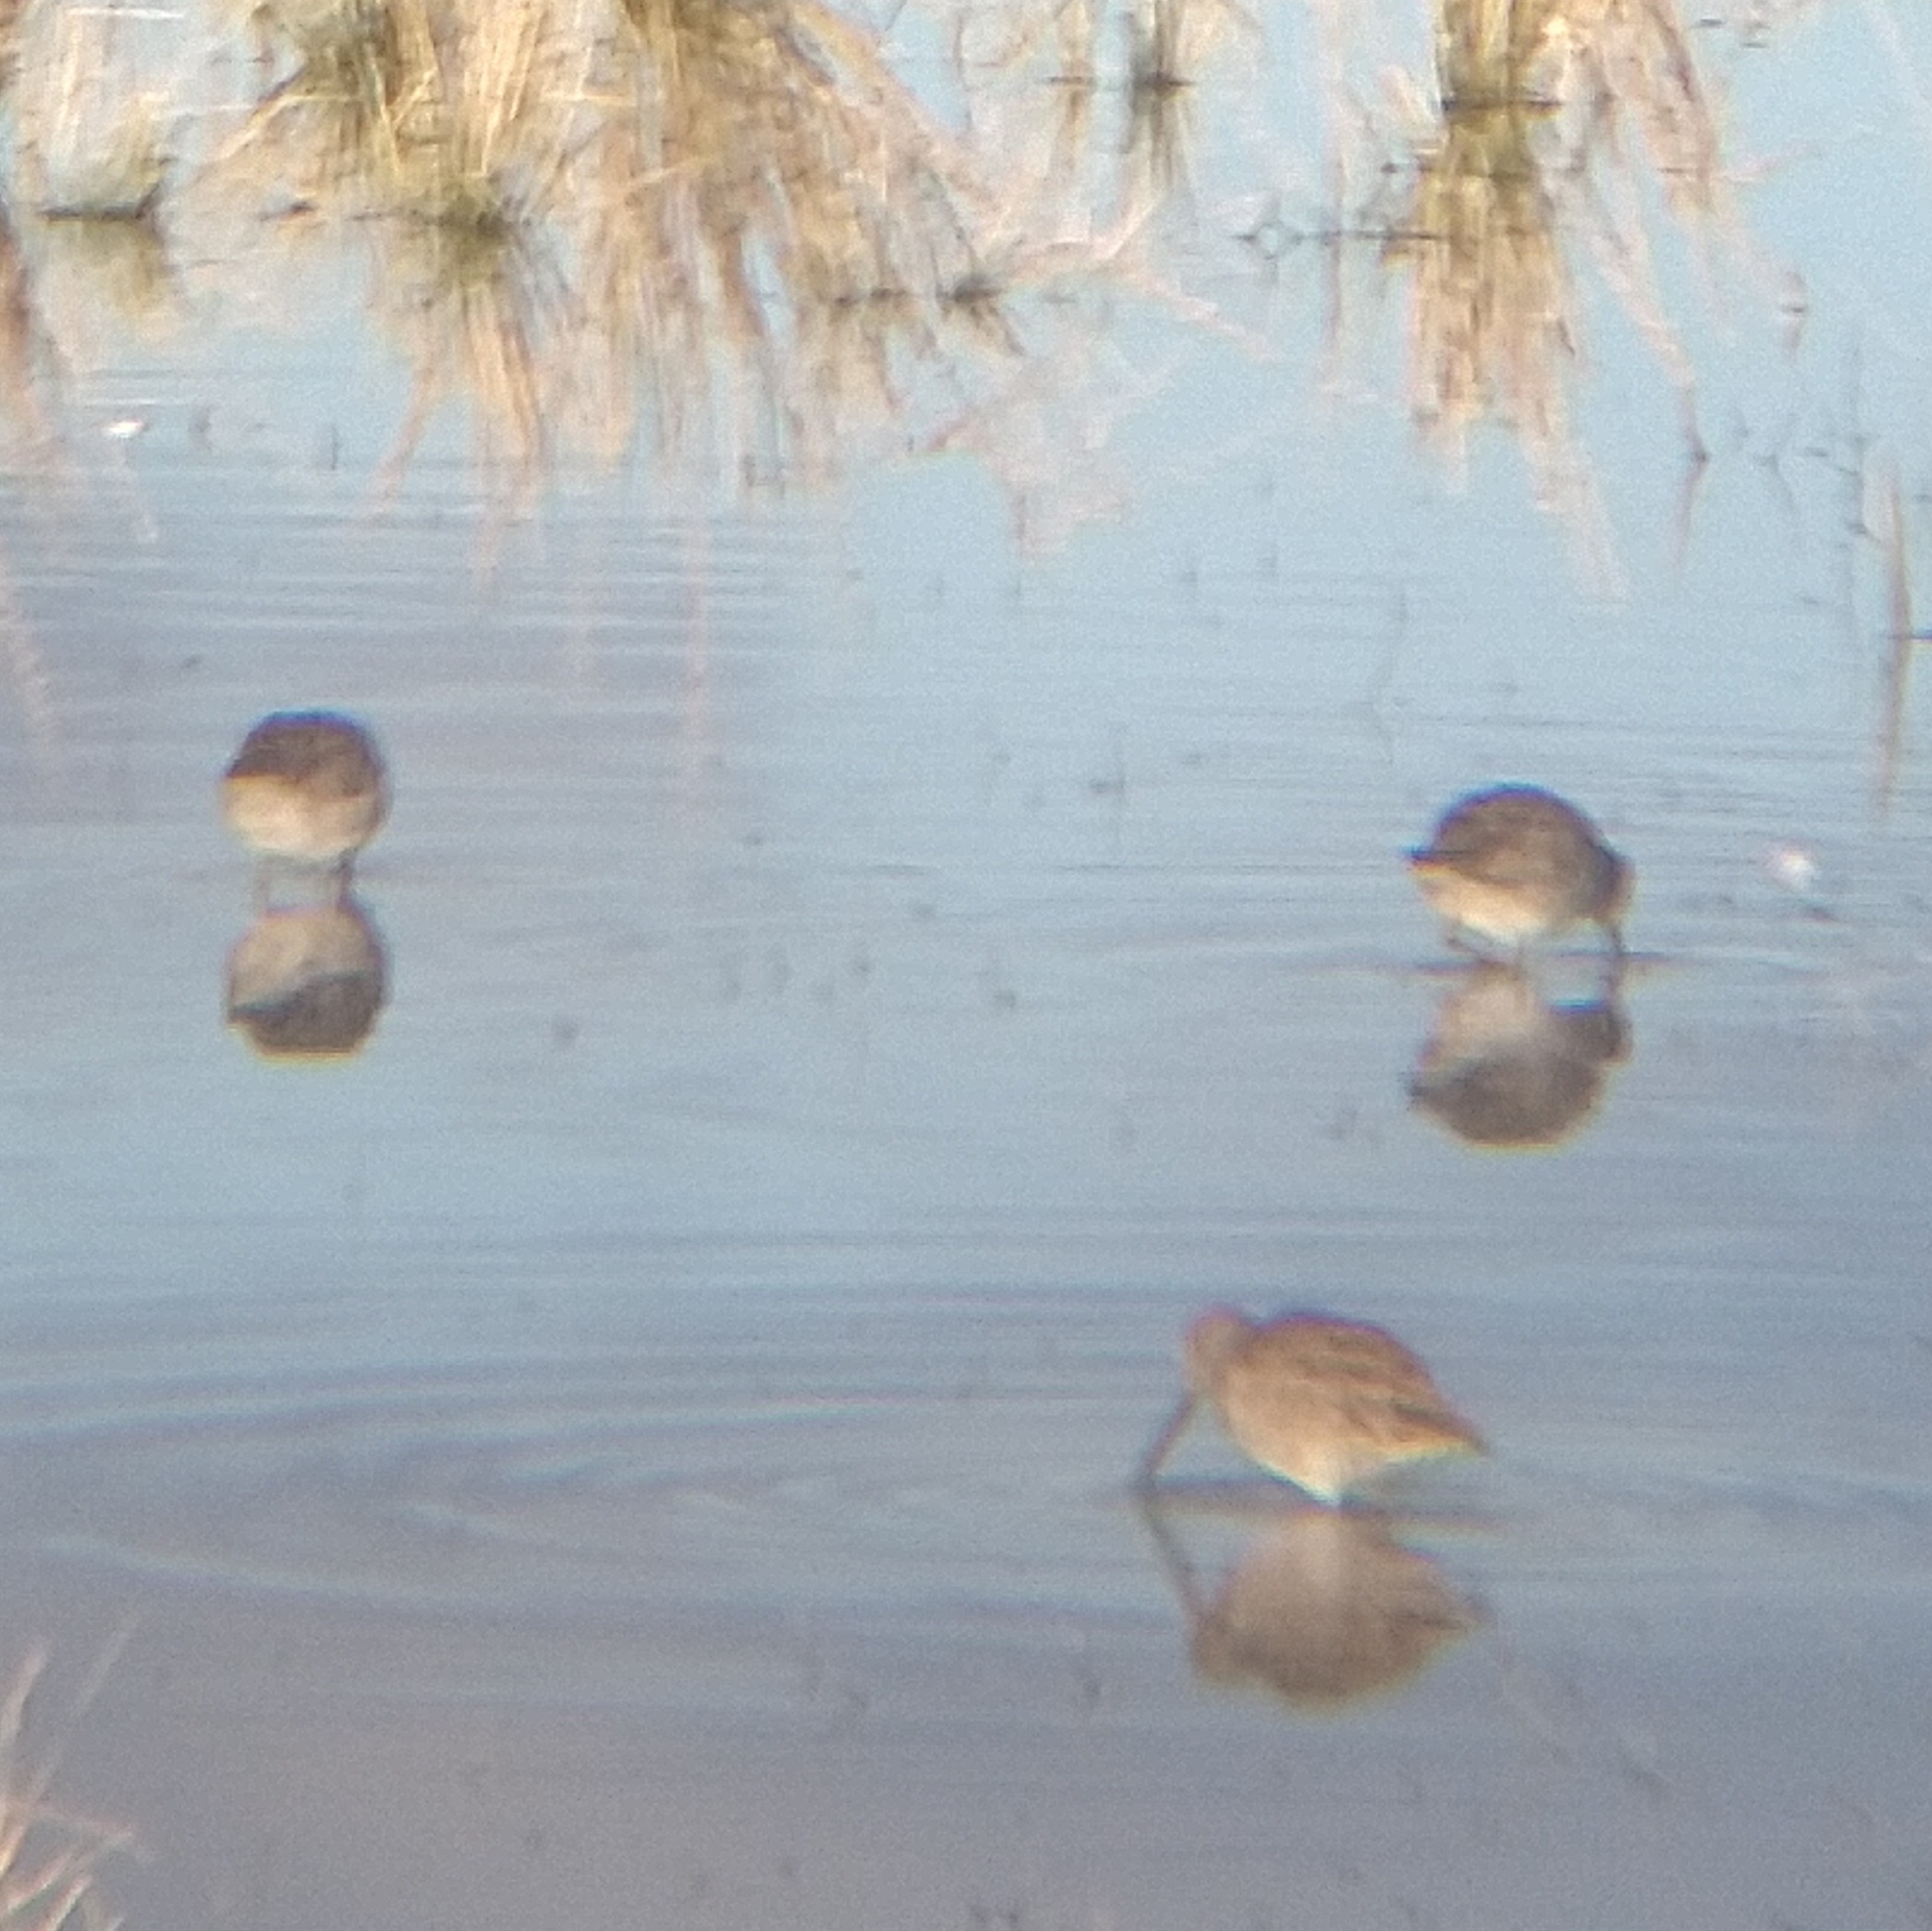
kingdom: Animalia
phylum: Chordata
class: Aves
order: Charadriiformes
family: Scolopacidae
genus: Limnodromus
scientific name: Limnodromus scolopaceus
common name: Long-billed dowitcher
